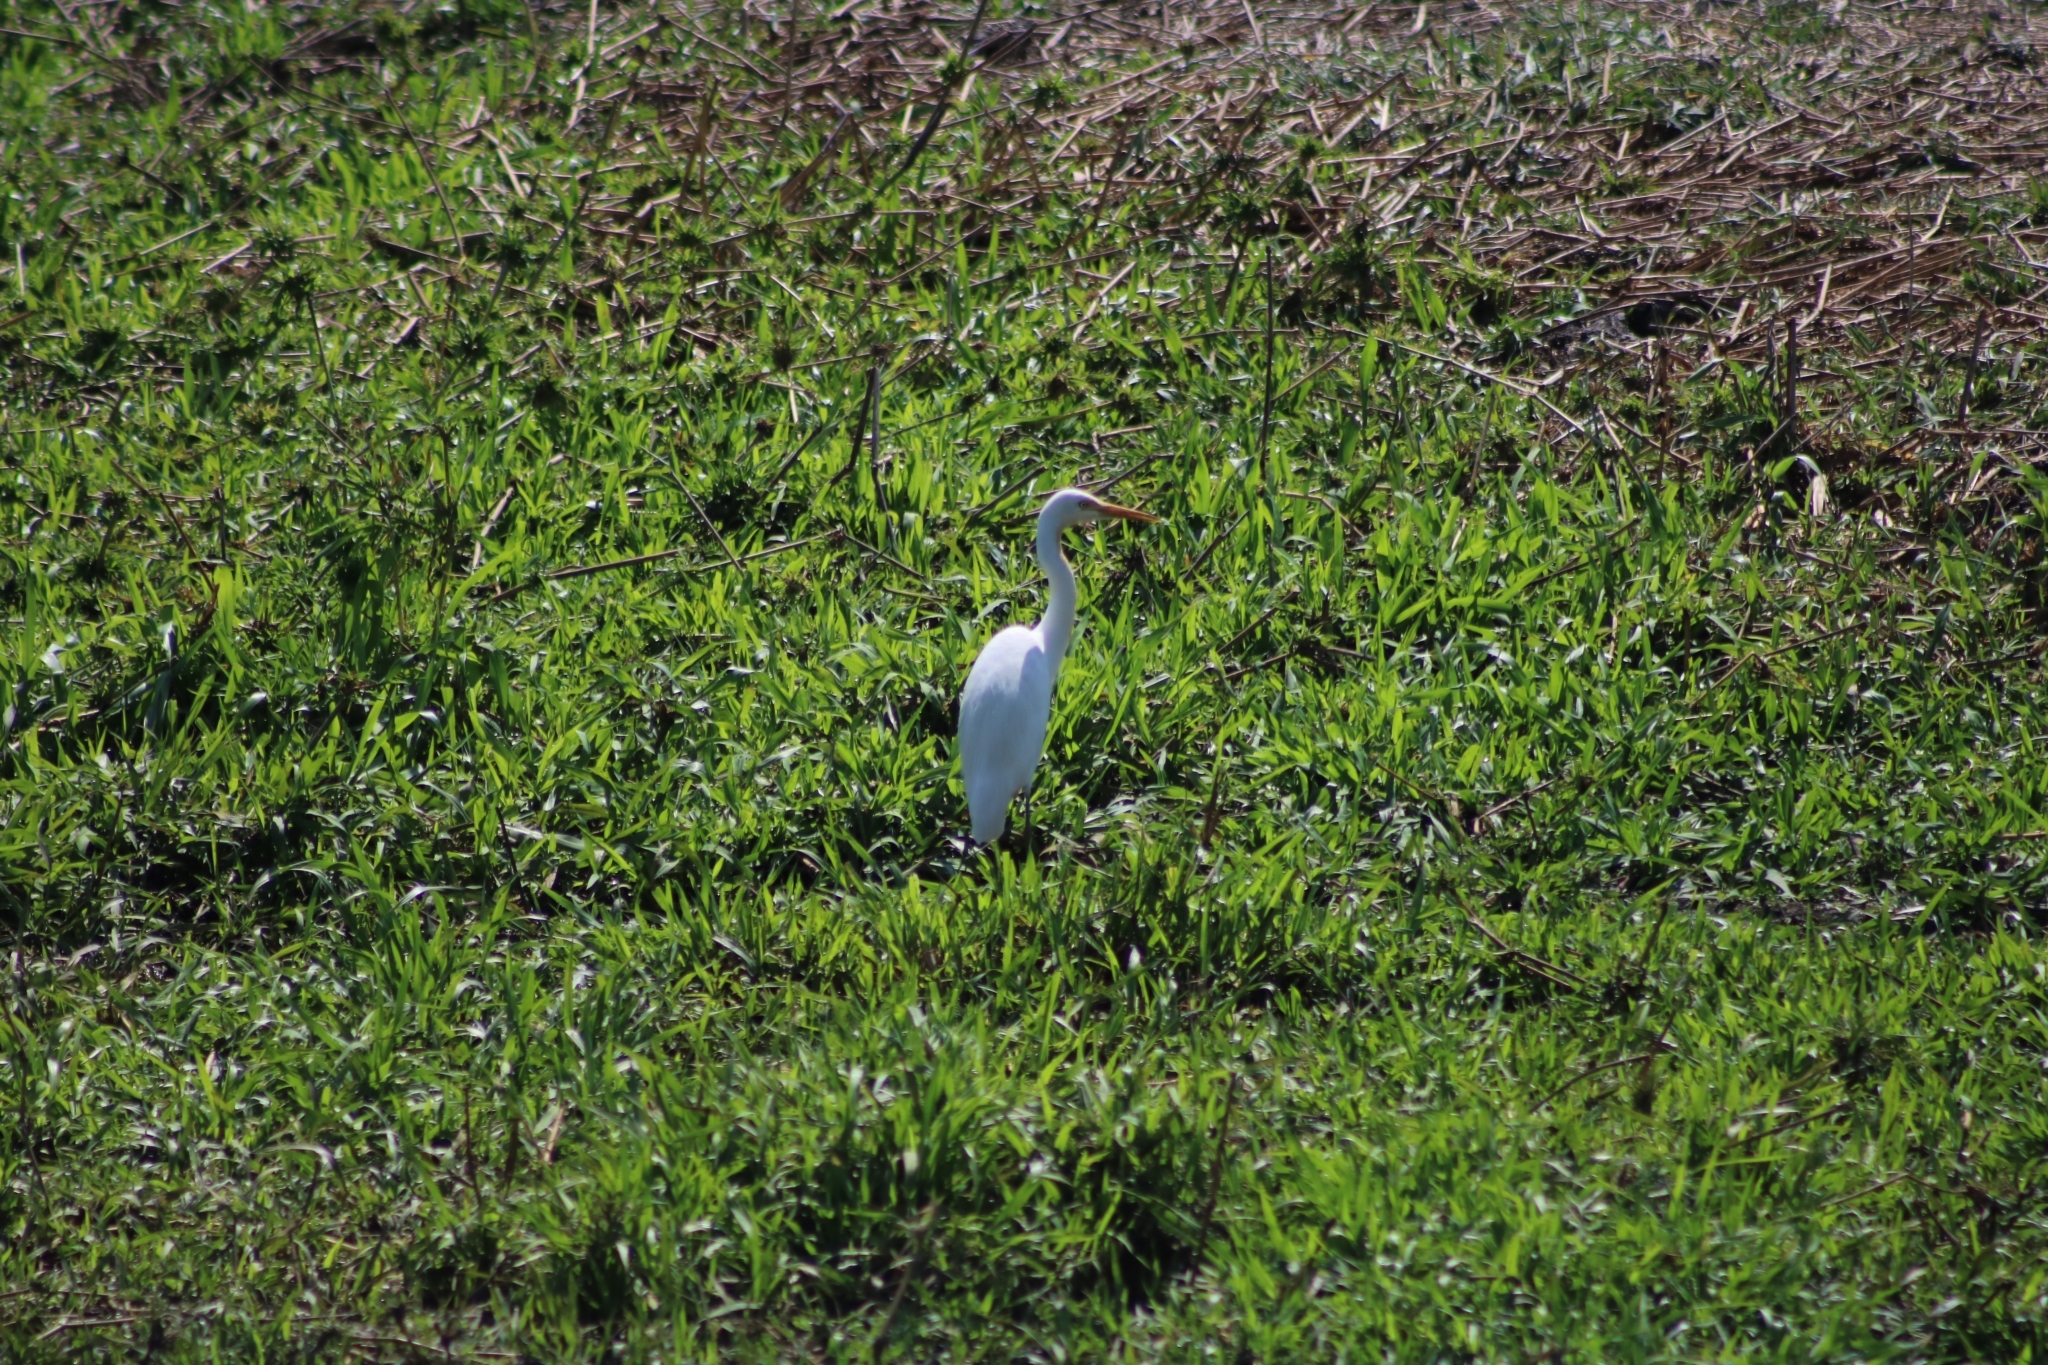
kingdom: Animalia
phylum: Chordata
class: Aves
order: Pelecaniformes
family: Ardeidae
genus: Egretta
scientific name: Egretta intermedia
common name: Intermediate egret
